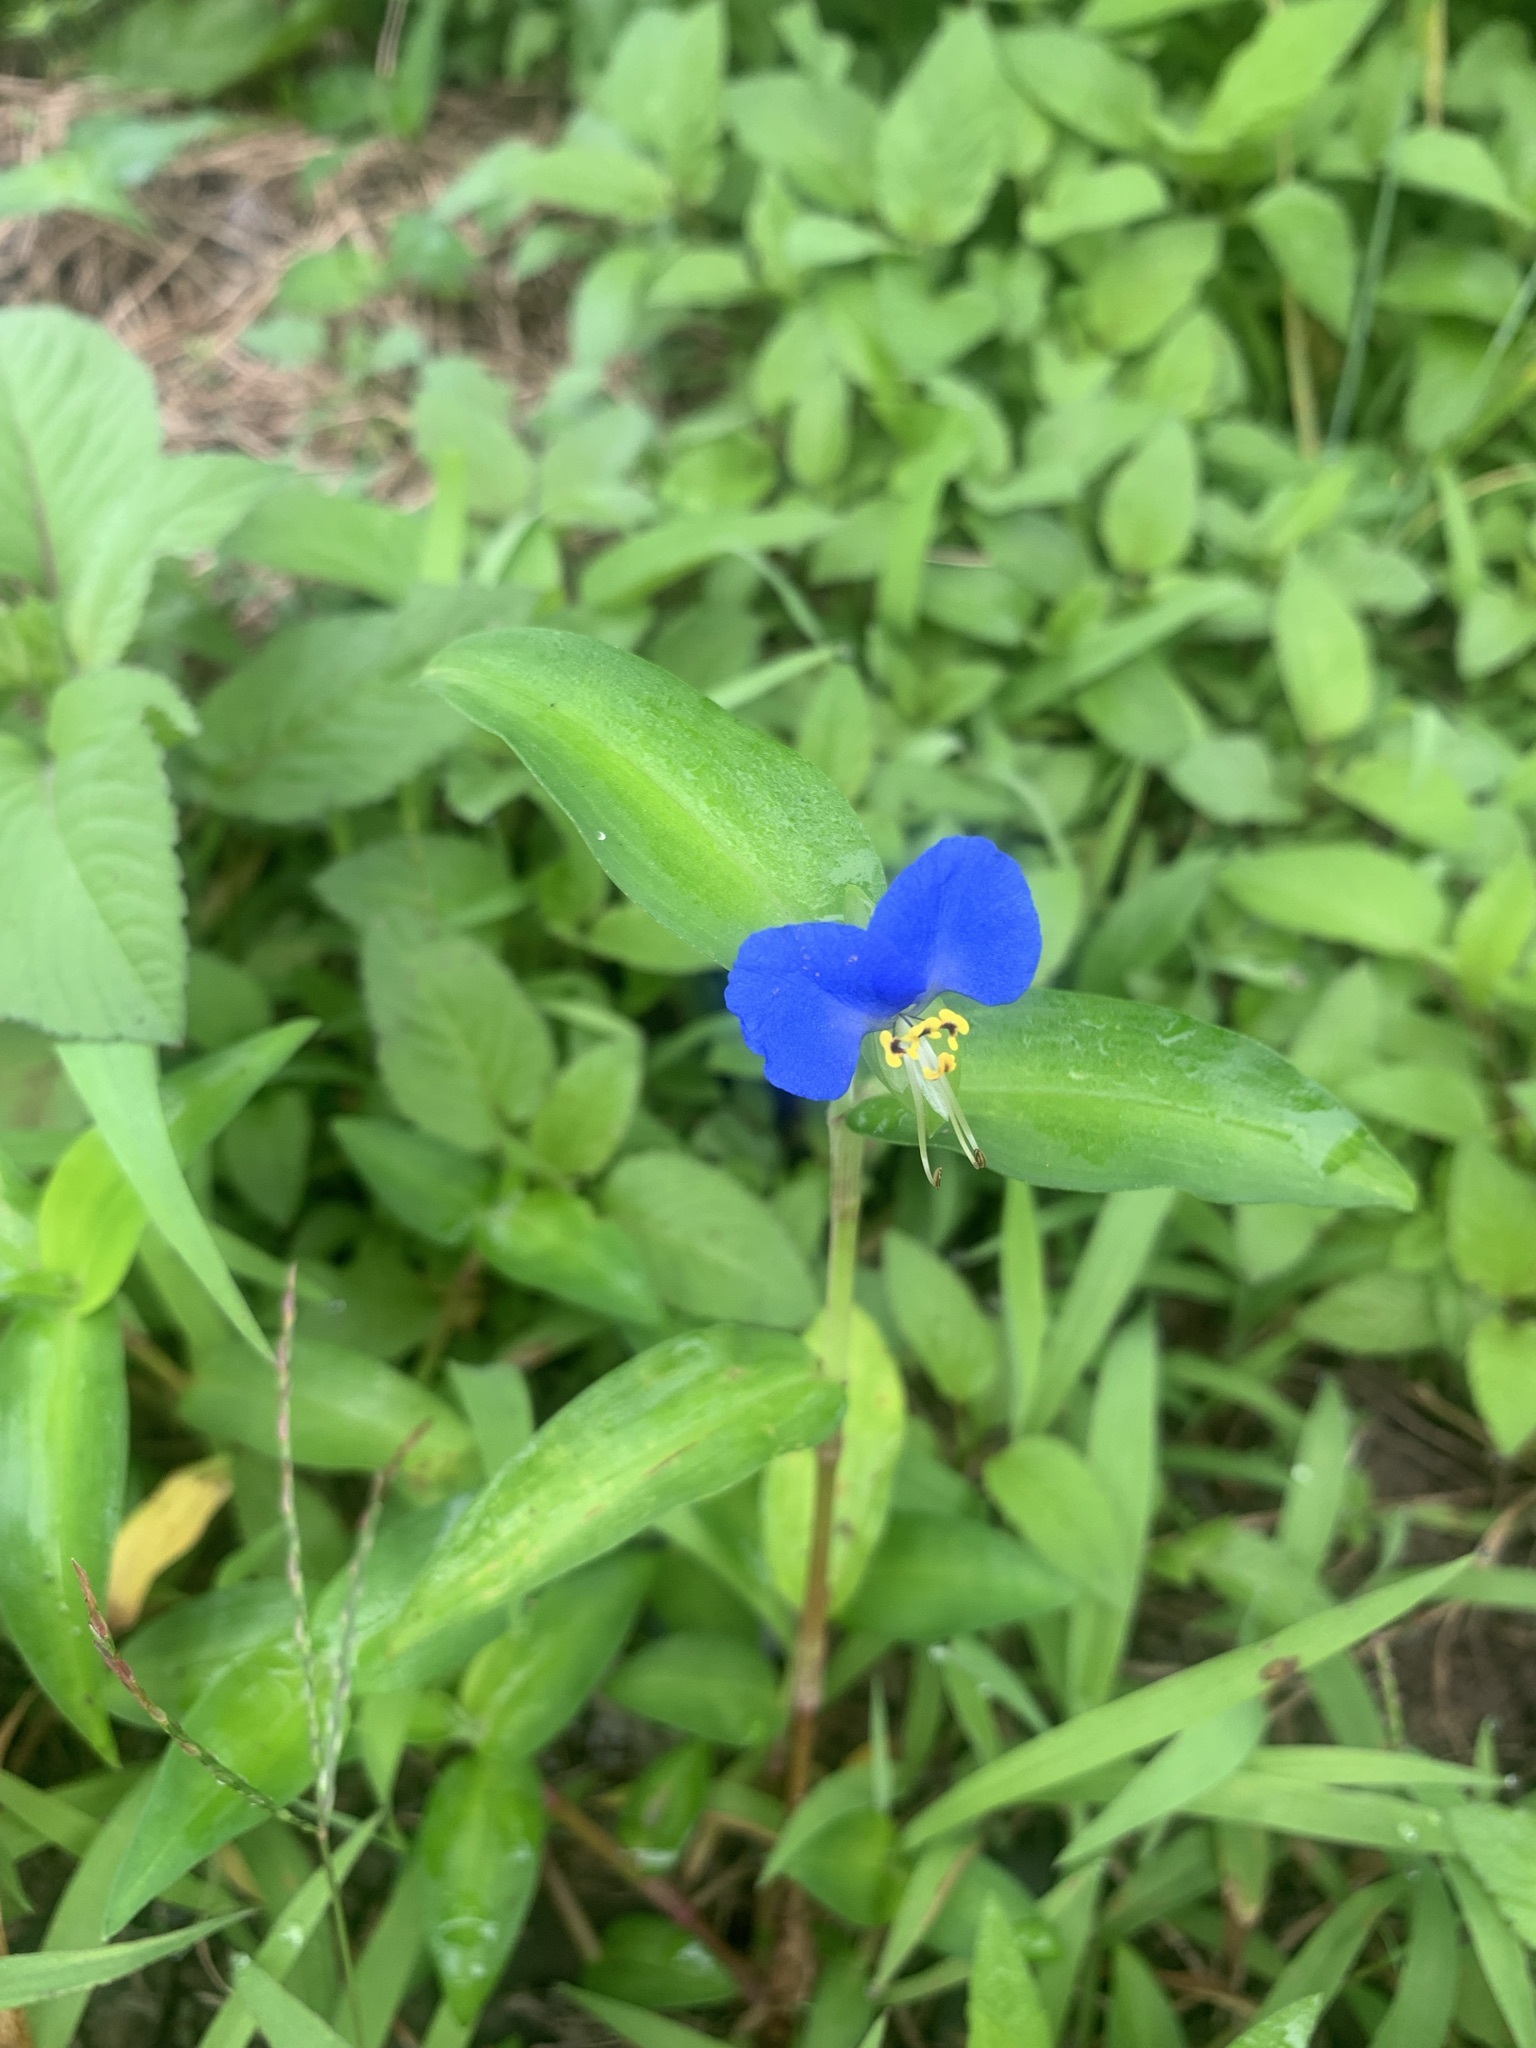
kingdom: Plantae
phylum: Tracheophyta
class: Liliopsida
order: Commelinales
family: Commelinaceae
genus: Commelina
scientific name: Commelina communis
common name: Asiatic dayflower
